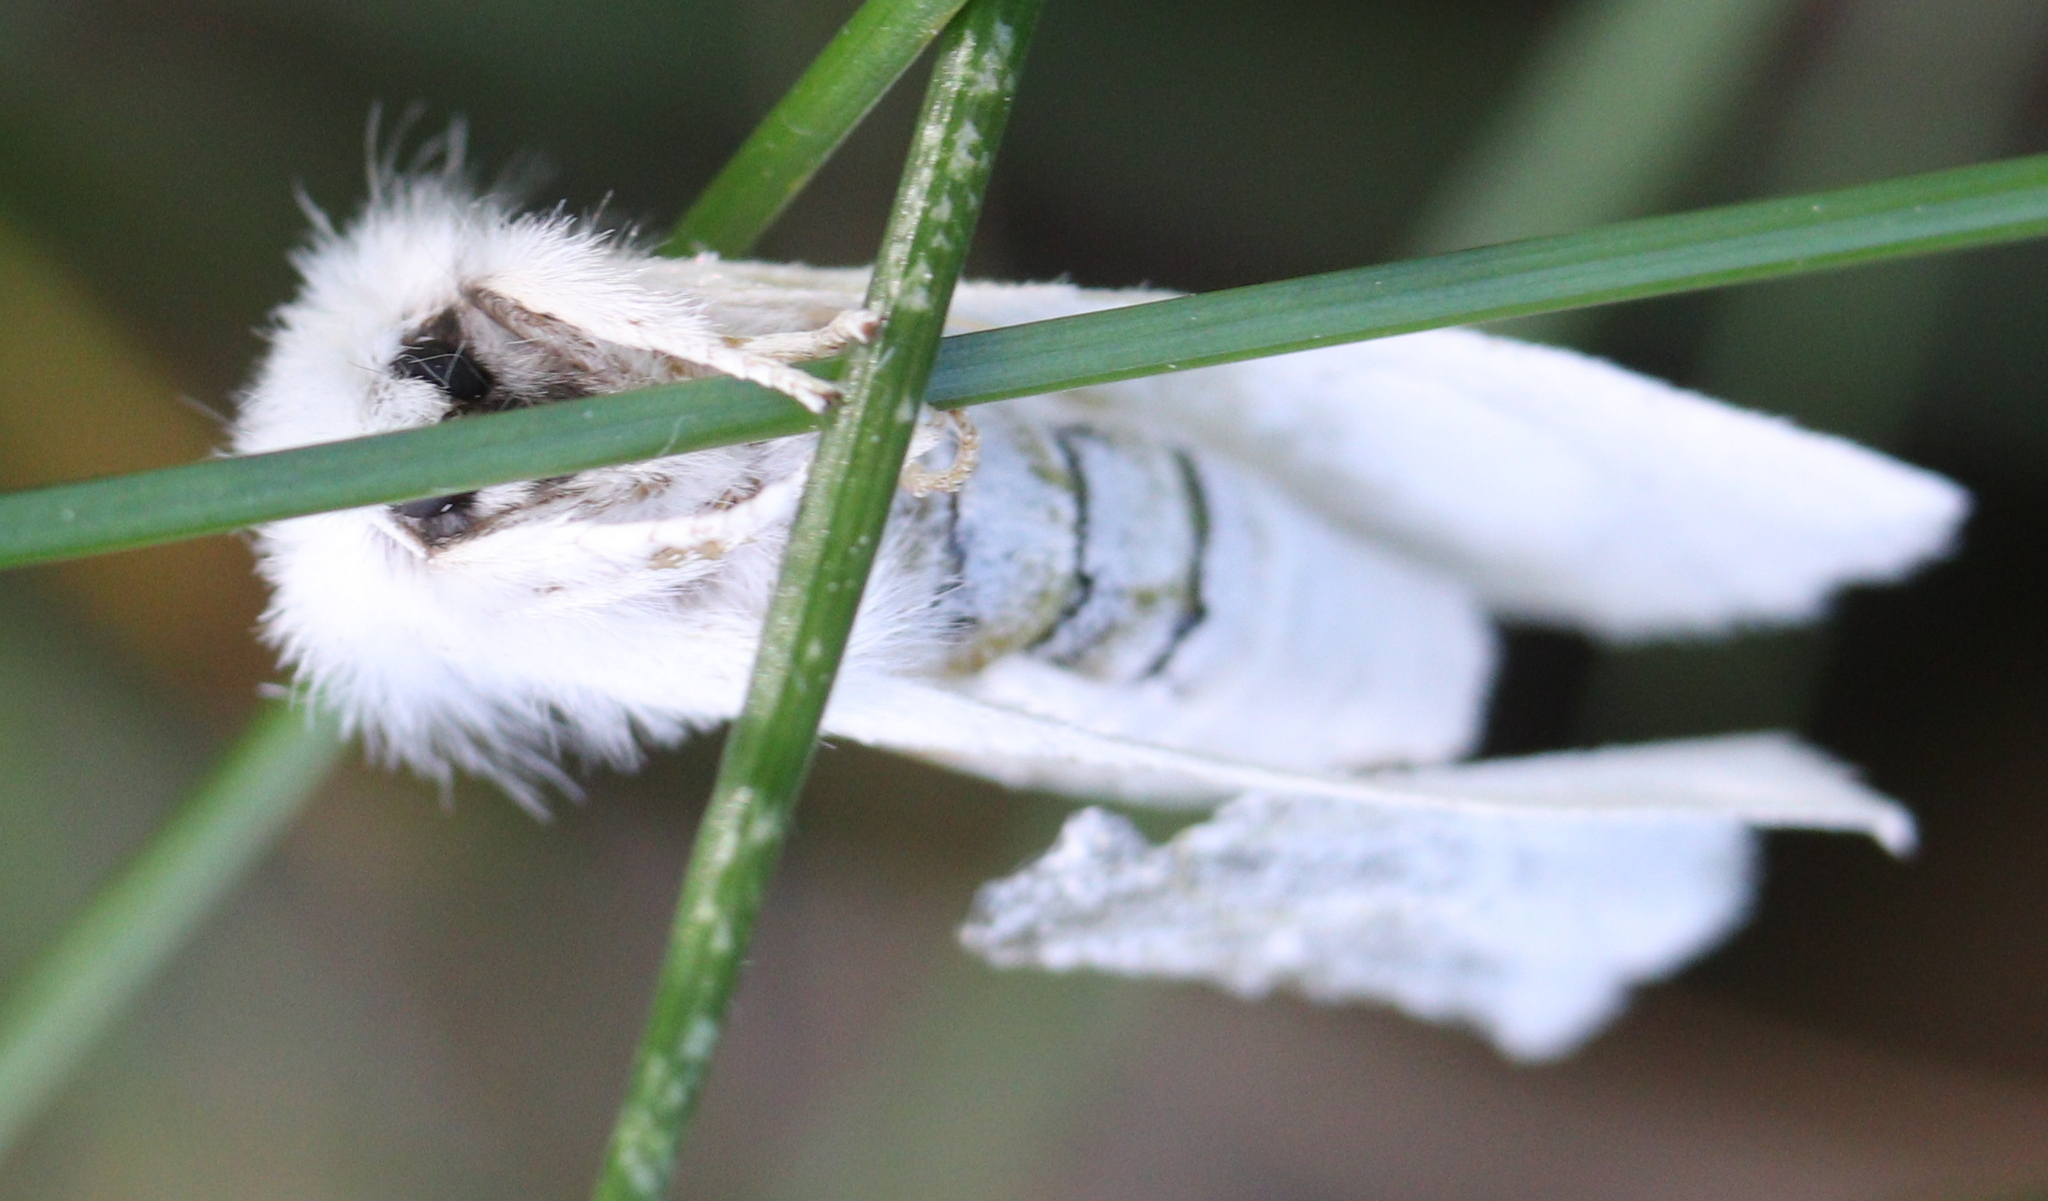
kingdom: Animalia
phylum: Arthropoda
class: Insecta
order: Lepidoptera
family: Notodontidae
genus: Leucodonta
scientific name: Leucodonta bicoloria
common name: White prominent
